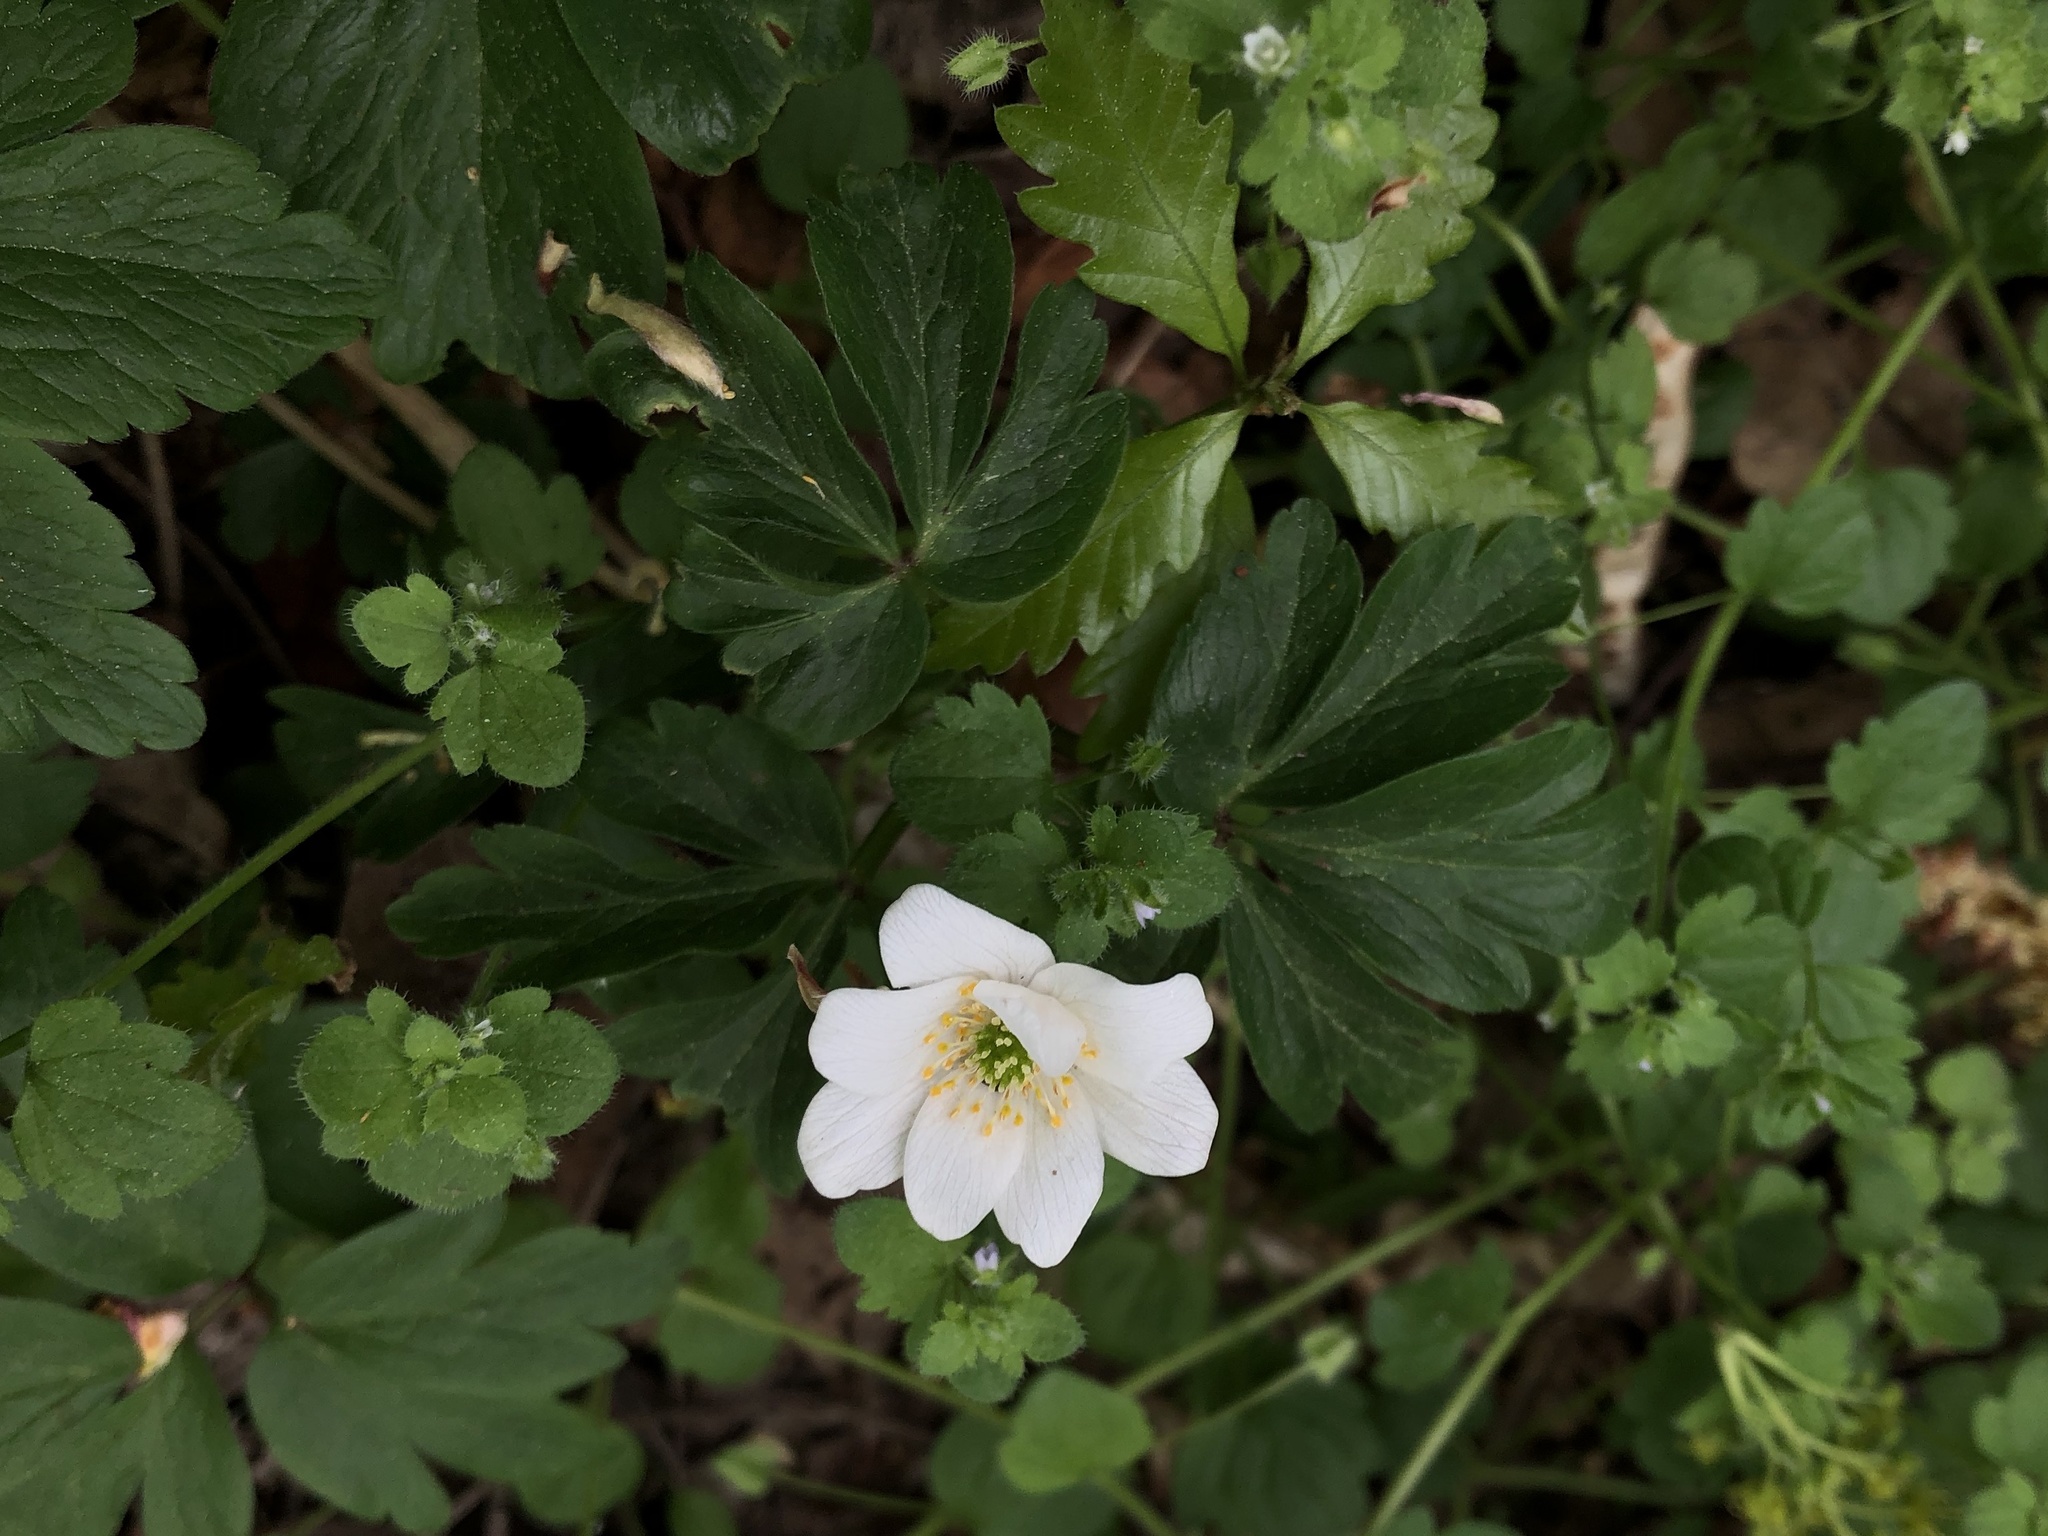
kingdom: Plantae
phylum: Tracheophyta
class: Magnoliopsida
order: Ranunculales
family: Ranunculaceae
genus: Anemone
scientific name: Anemone nemorosa
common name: Wood anemone
